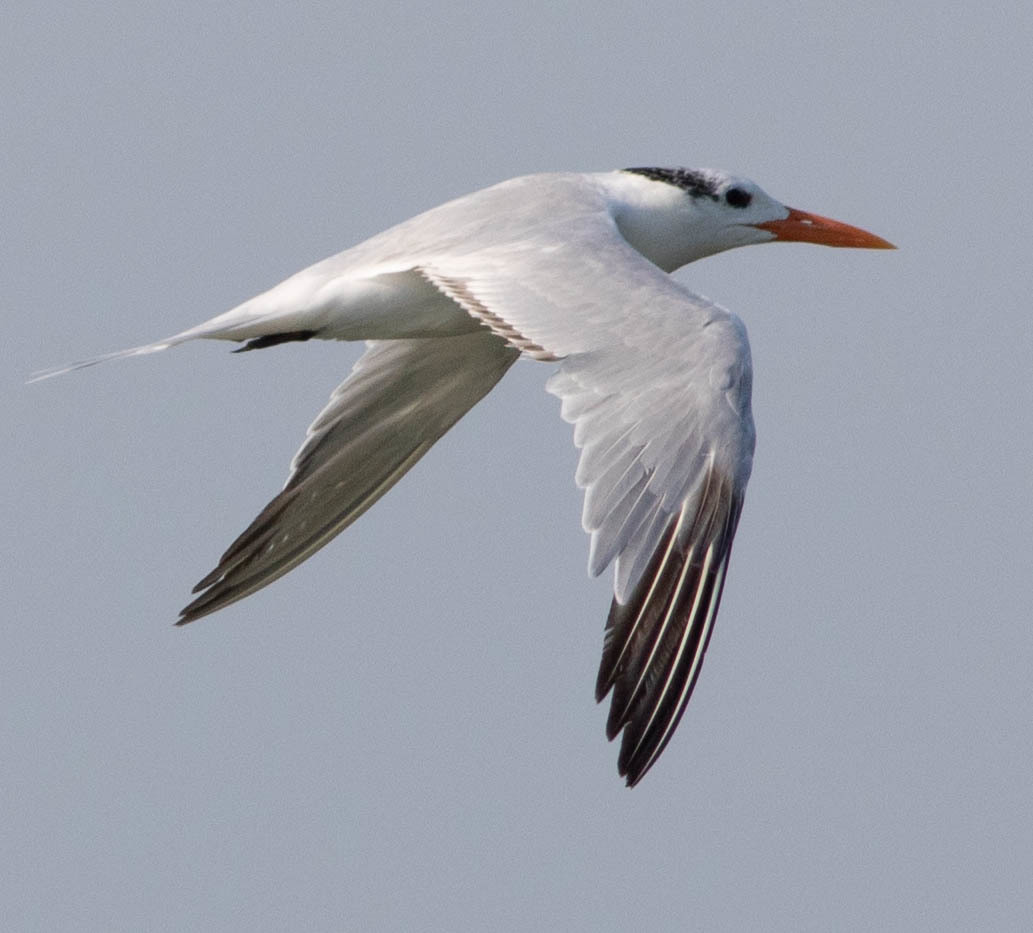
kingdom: Animalia
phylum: Chordata
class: Aves
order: Charadriiformes
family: Laridae
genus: Thalasseus
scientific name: Thalasseus maximus
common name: Royal tern
